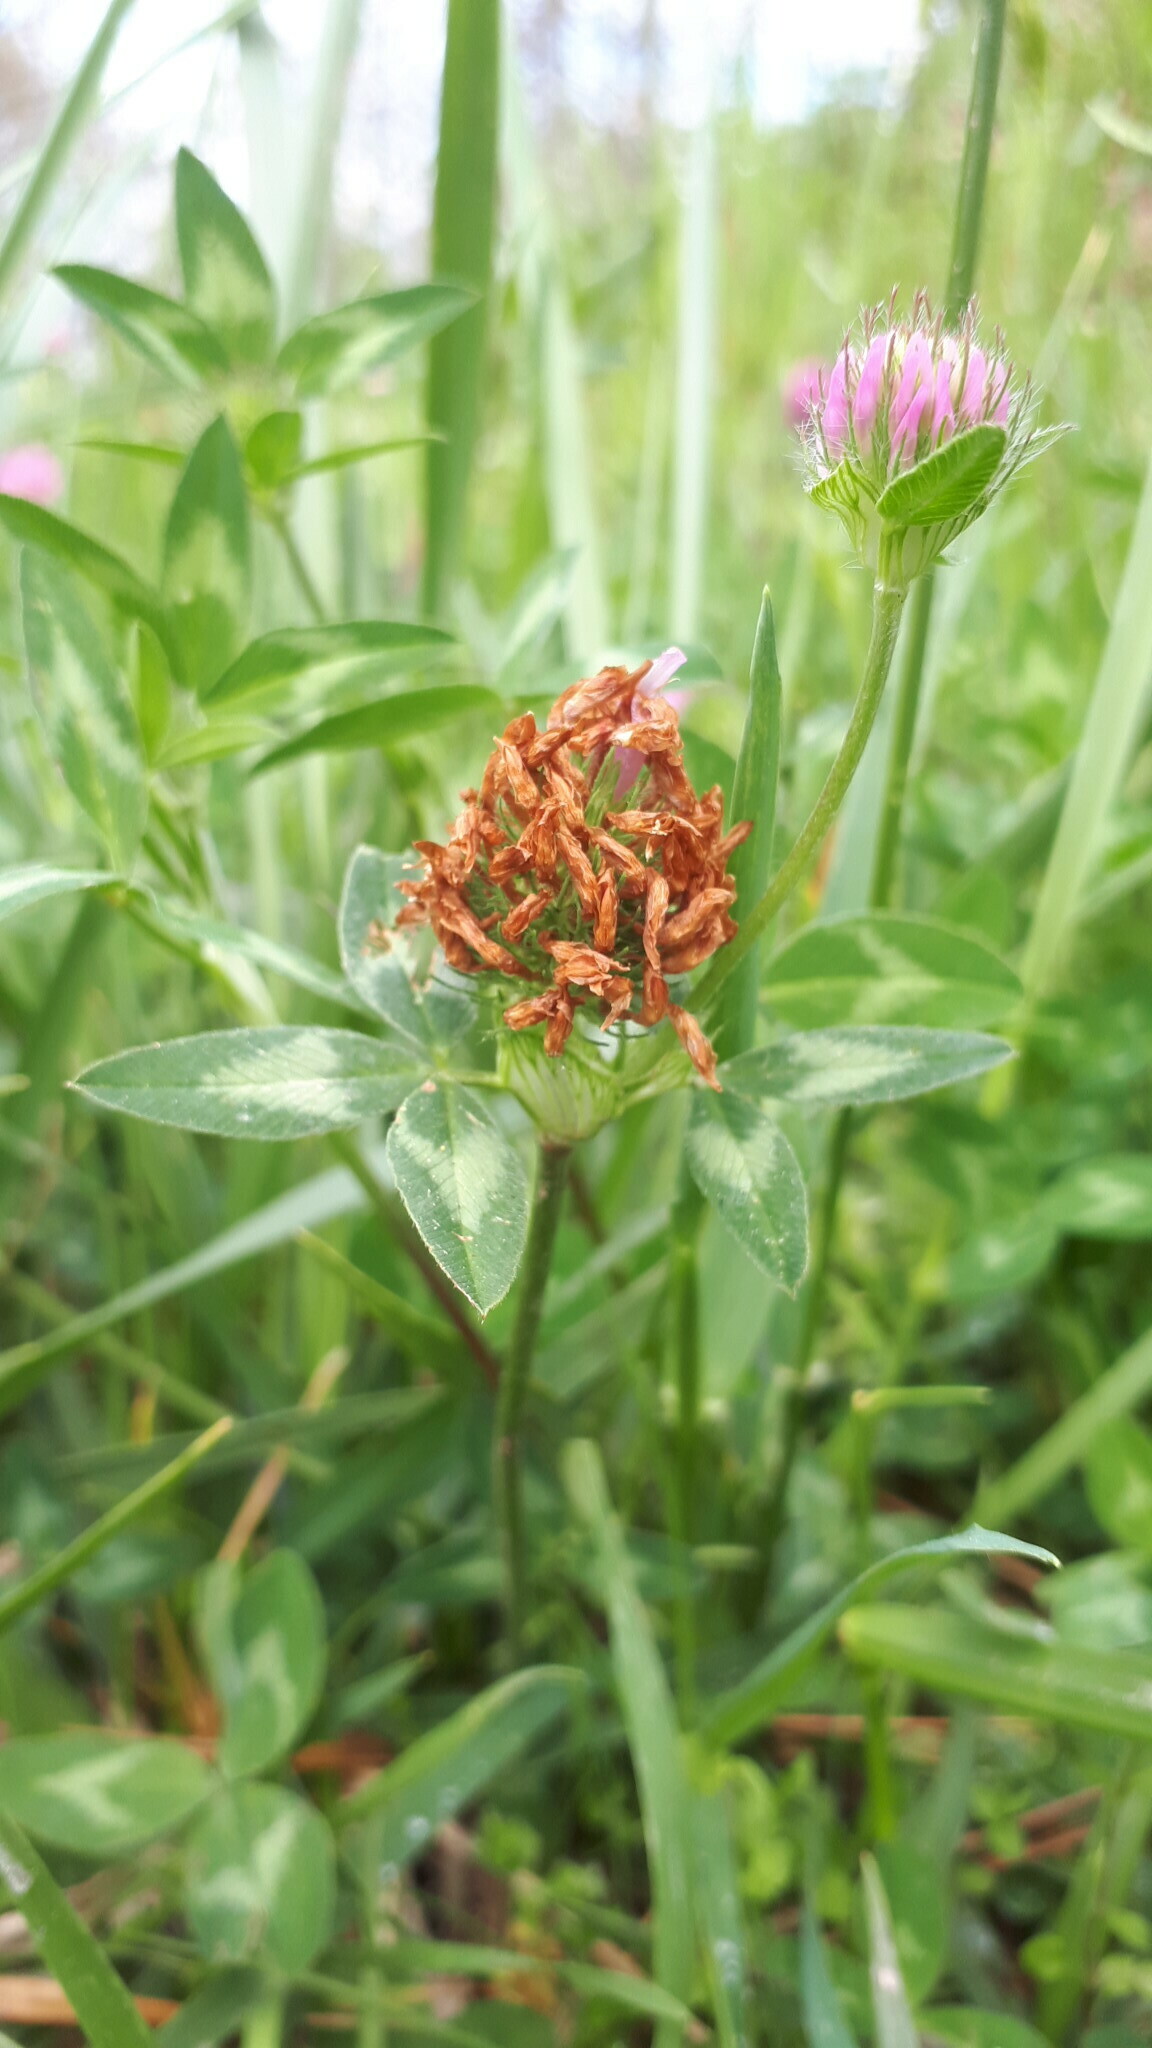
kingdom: Plantae
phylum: Tracheophyta
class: Magnoliopsida
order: Fabales
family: Fabaceae
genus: Trifolium
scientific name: Trifolium pratense
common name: Red clover
